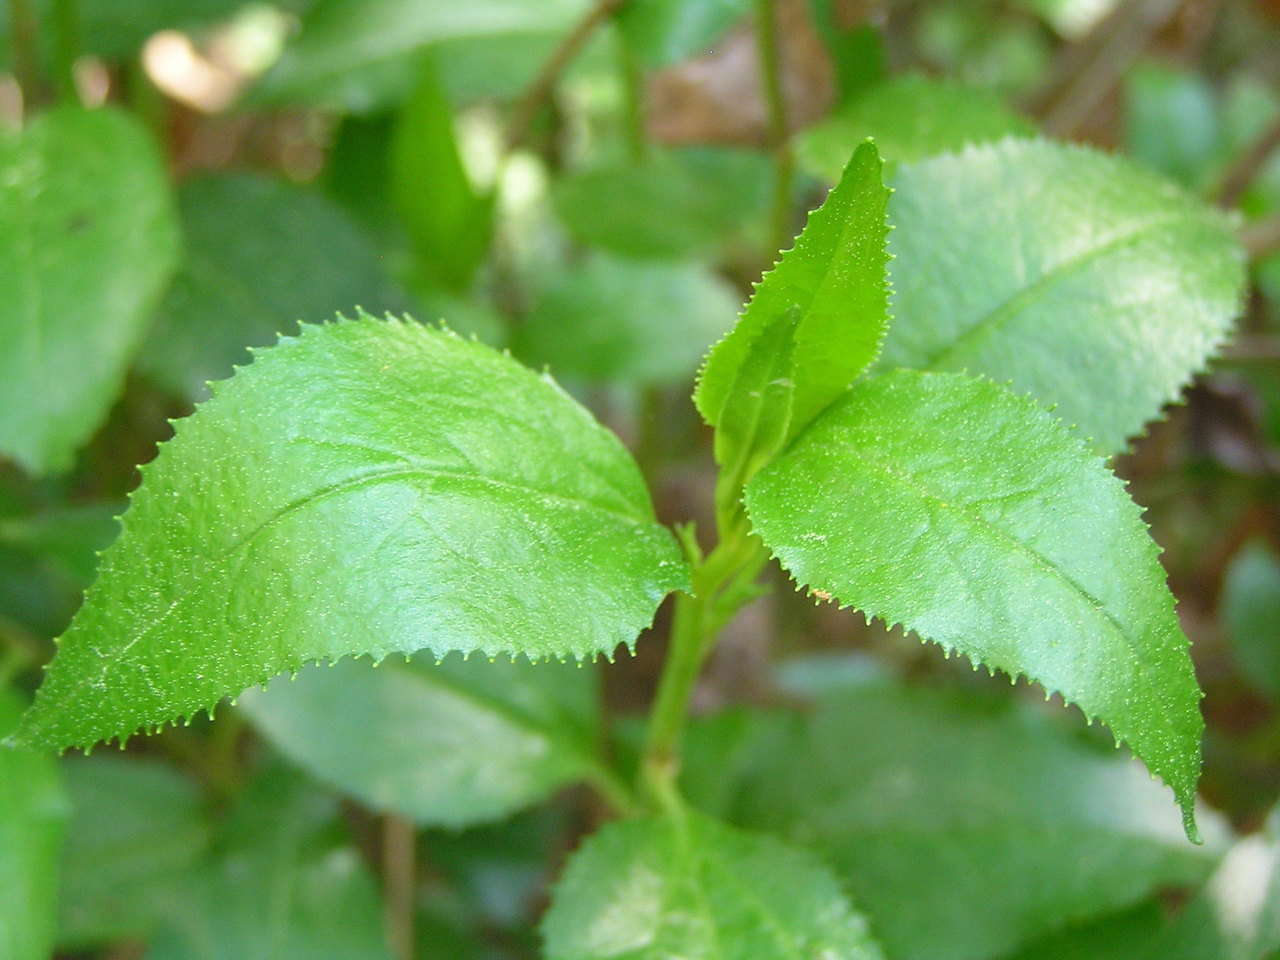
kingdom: Plantae
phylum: Tracheophyta
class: Magnoliopsida
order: Asterales
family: Goodeniaceae
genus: Goodenia
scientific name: Goodenia ovata
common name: Hop goodenia
